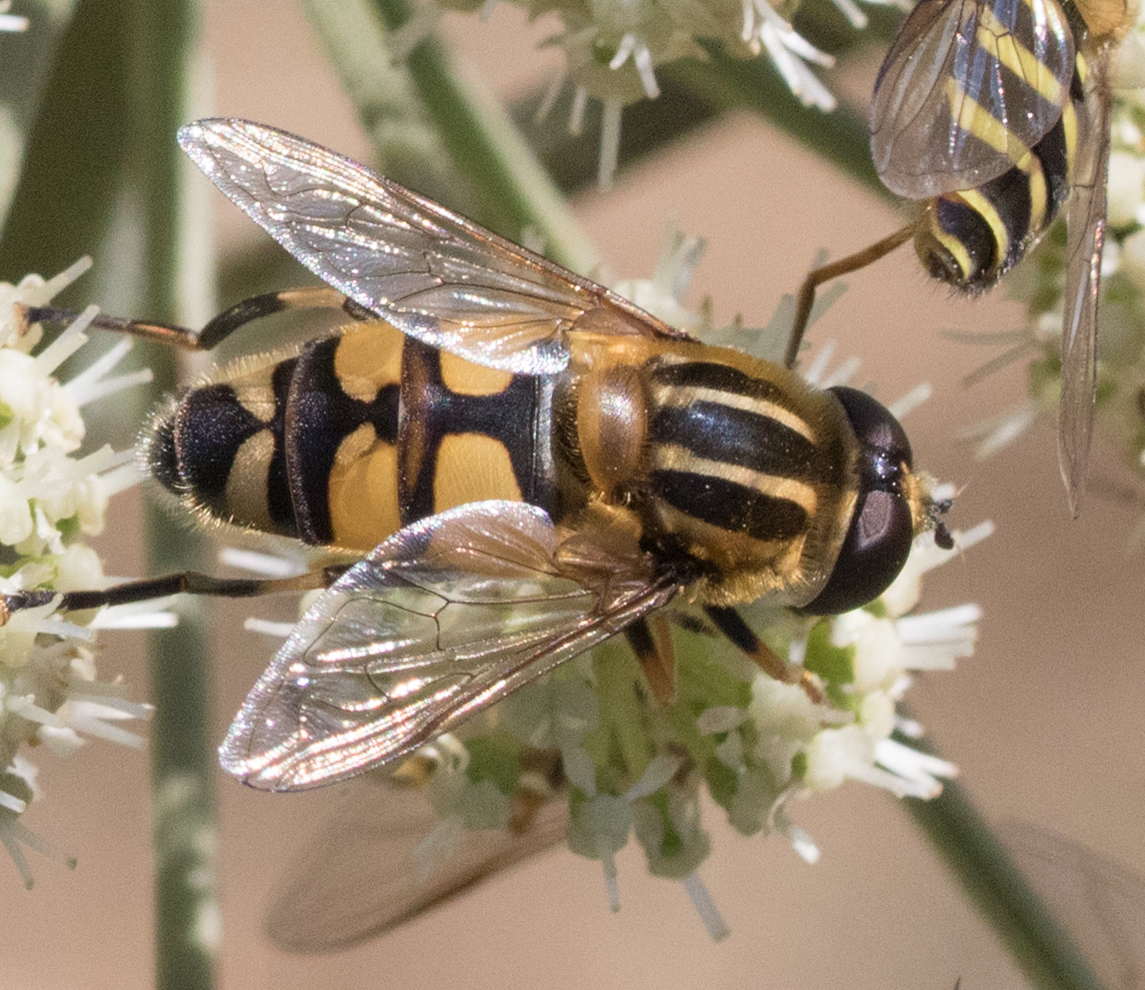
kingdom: Animalia
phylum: Arthropoda
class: Insecta
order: Diptera
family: Syrphidae
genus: Helophilus
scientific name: Helophilus affinis
